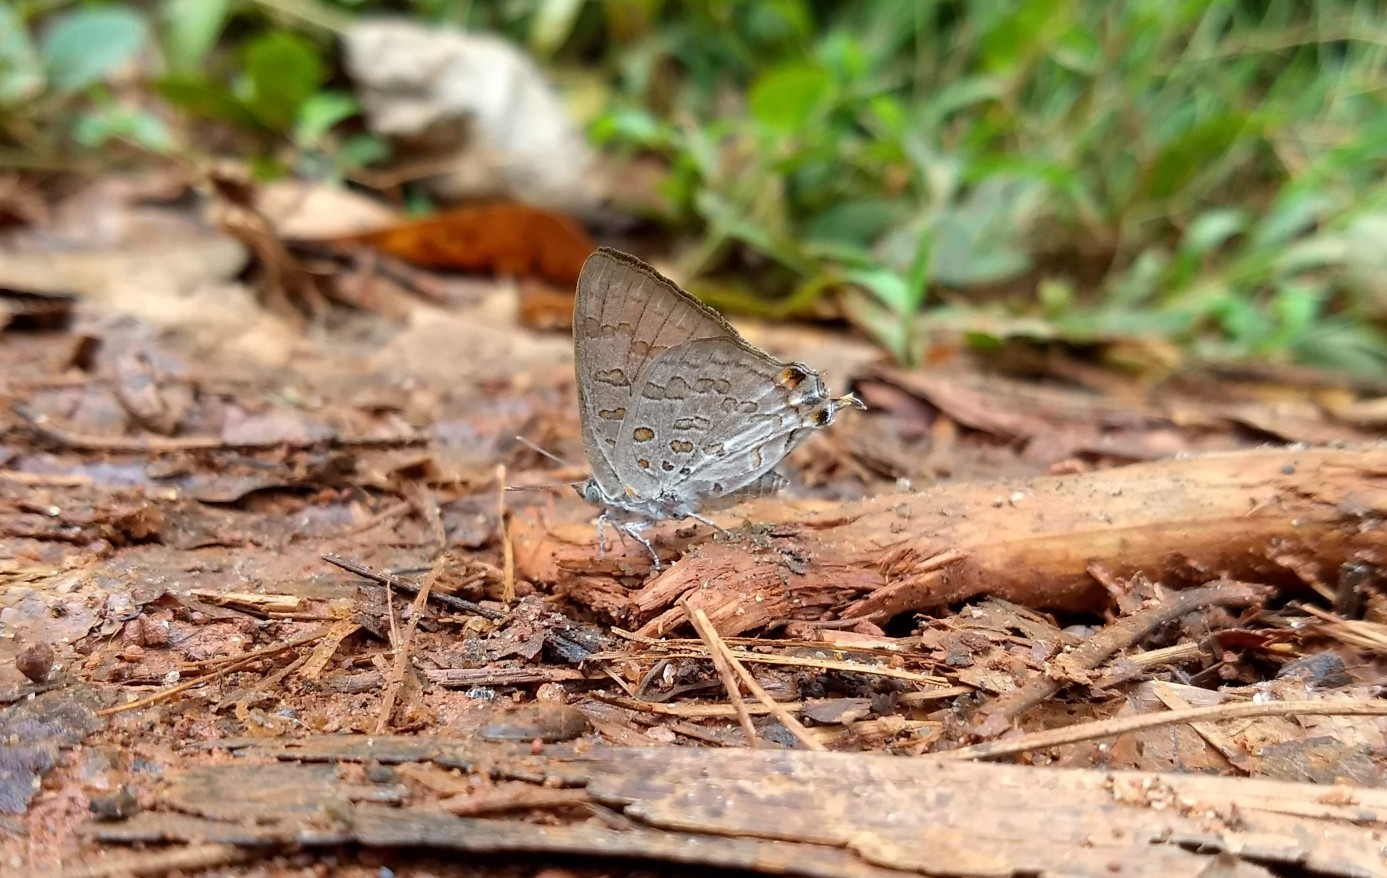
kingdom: Animalia
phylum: Arthropoda
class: Insecta
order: Lepidoptera
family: Lycaenidae
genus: Zesius
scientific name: Zesius chrysomallus
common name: Redspot
